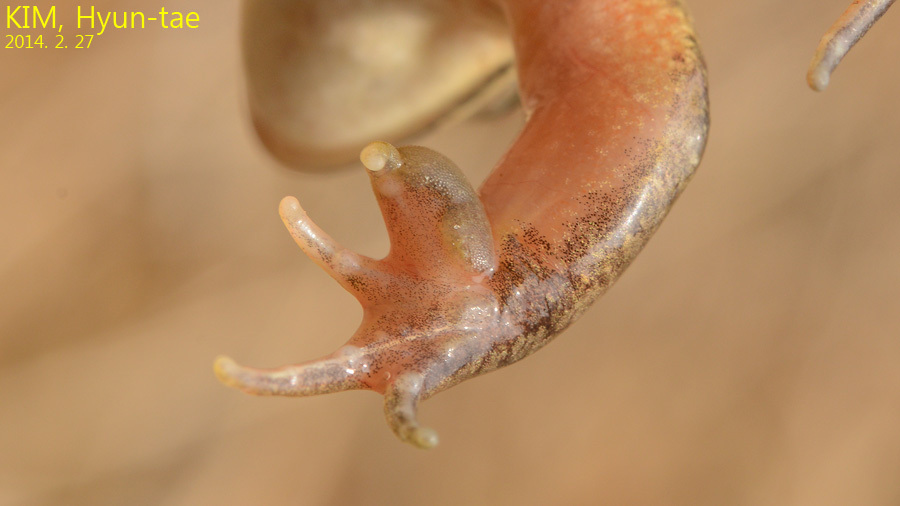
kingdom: Animalia
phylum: Chordata
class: Amphibia
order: Anura
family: Ranidae
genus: Rana
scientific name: Rana coreana
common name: Korean brown frog
